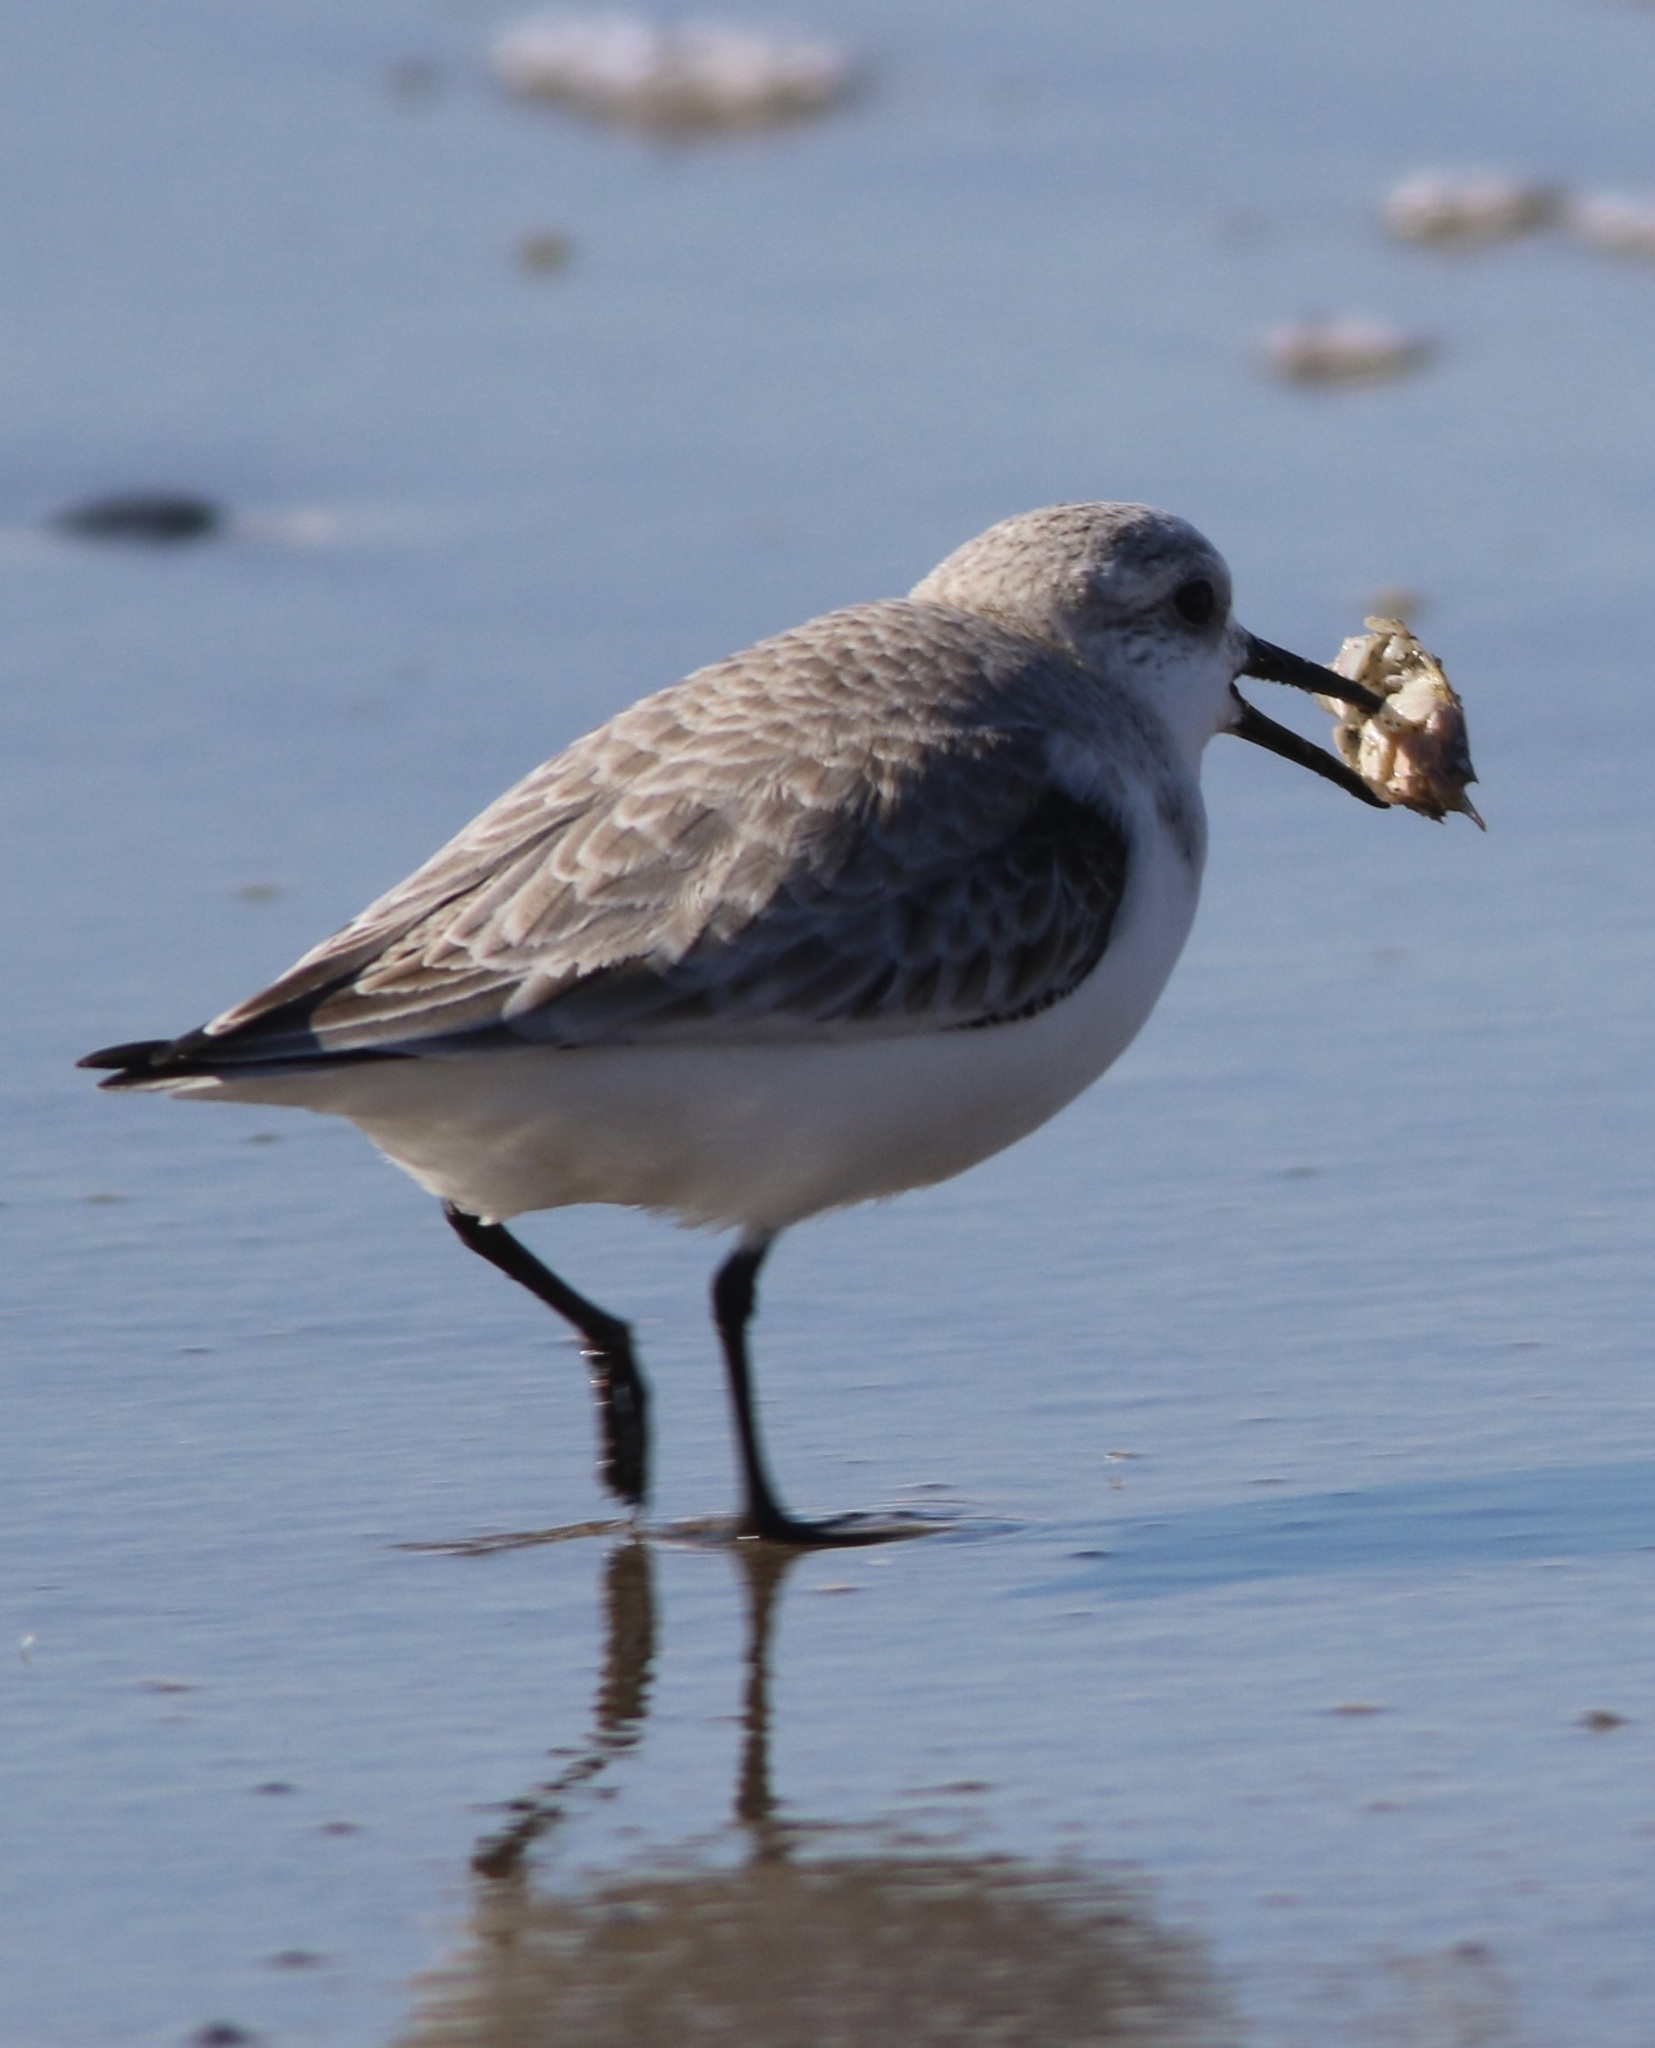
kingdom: Animalia
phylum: Chordata
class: Aves
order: Charadriiformes
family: Scolopacidae
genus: Calidris
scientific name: Calidris alba
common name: Sanderling
